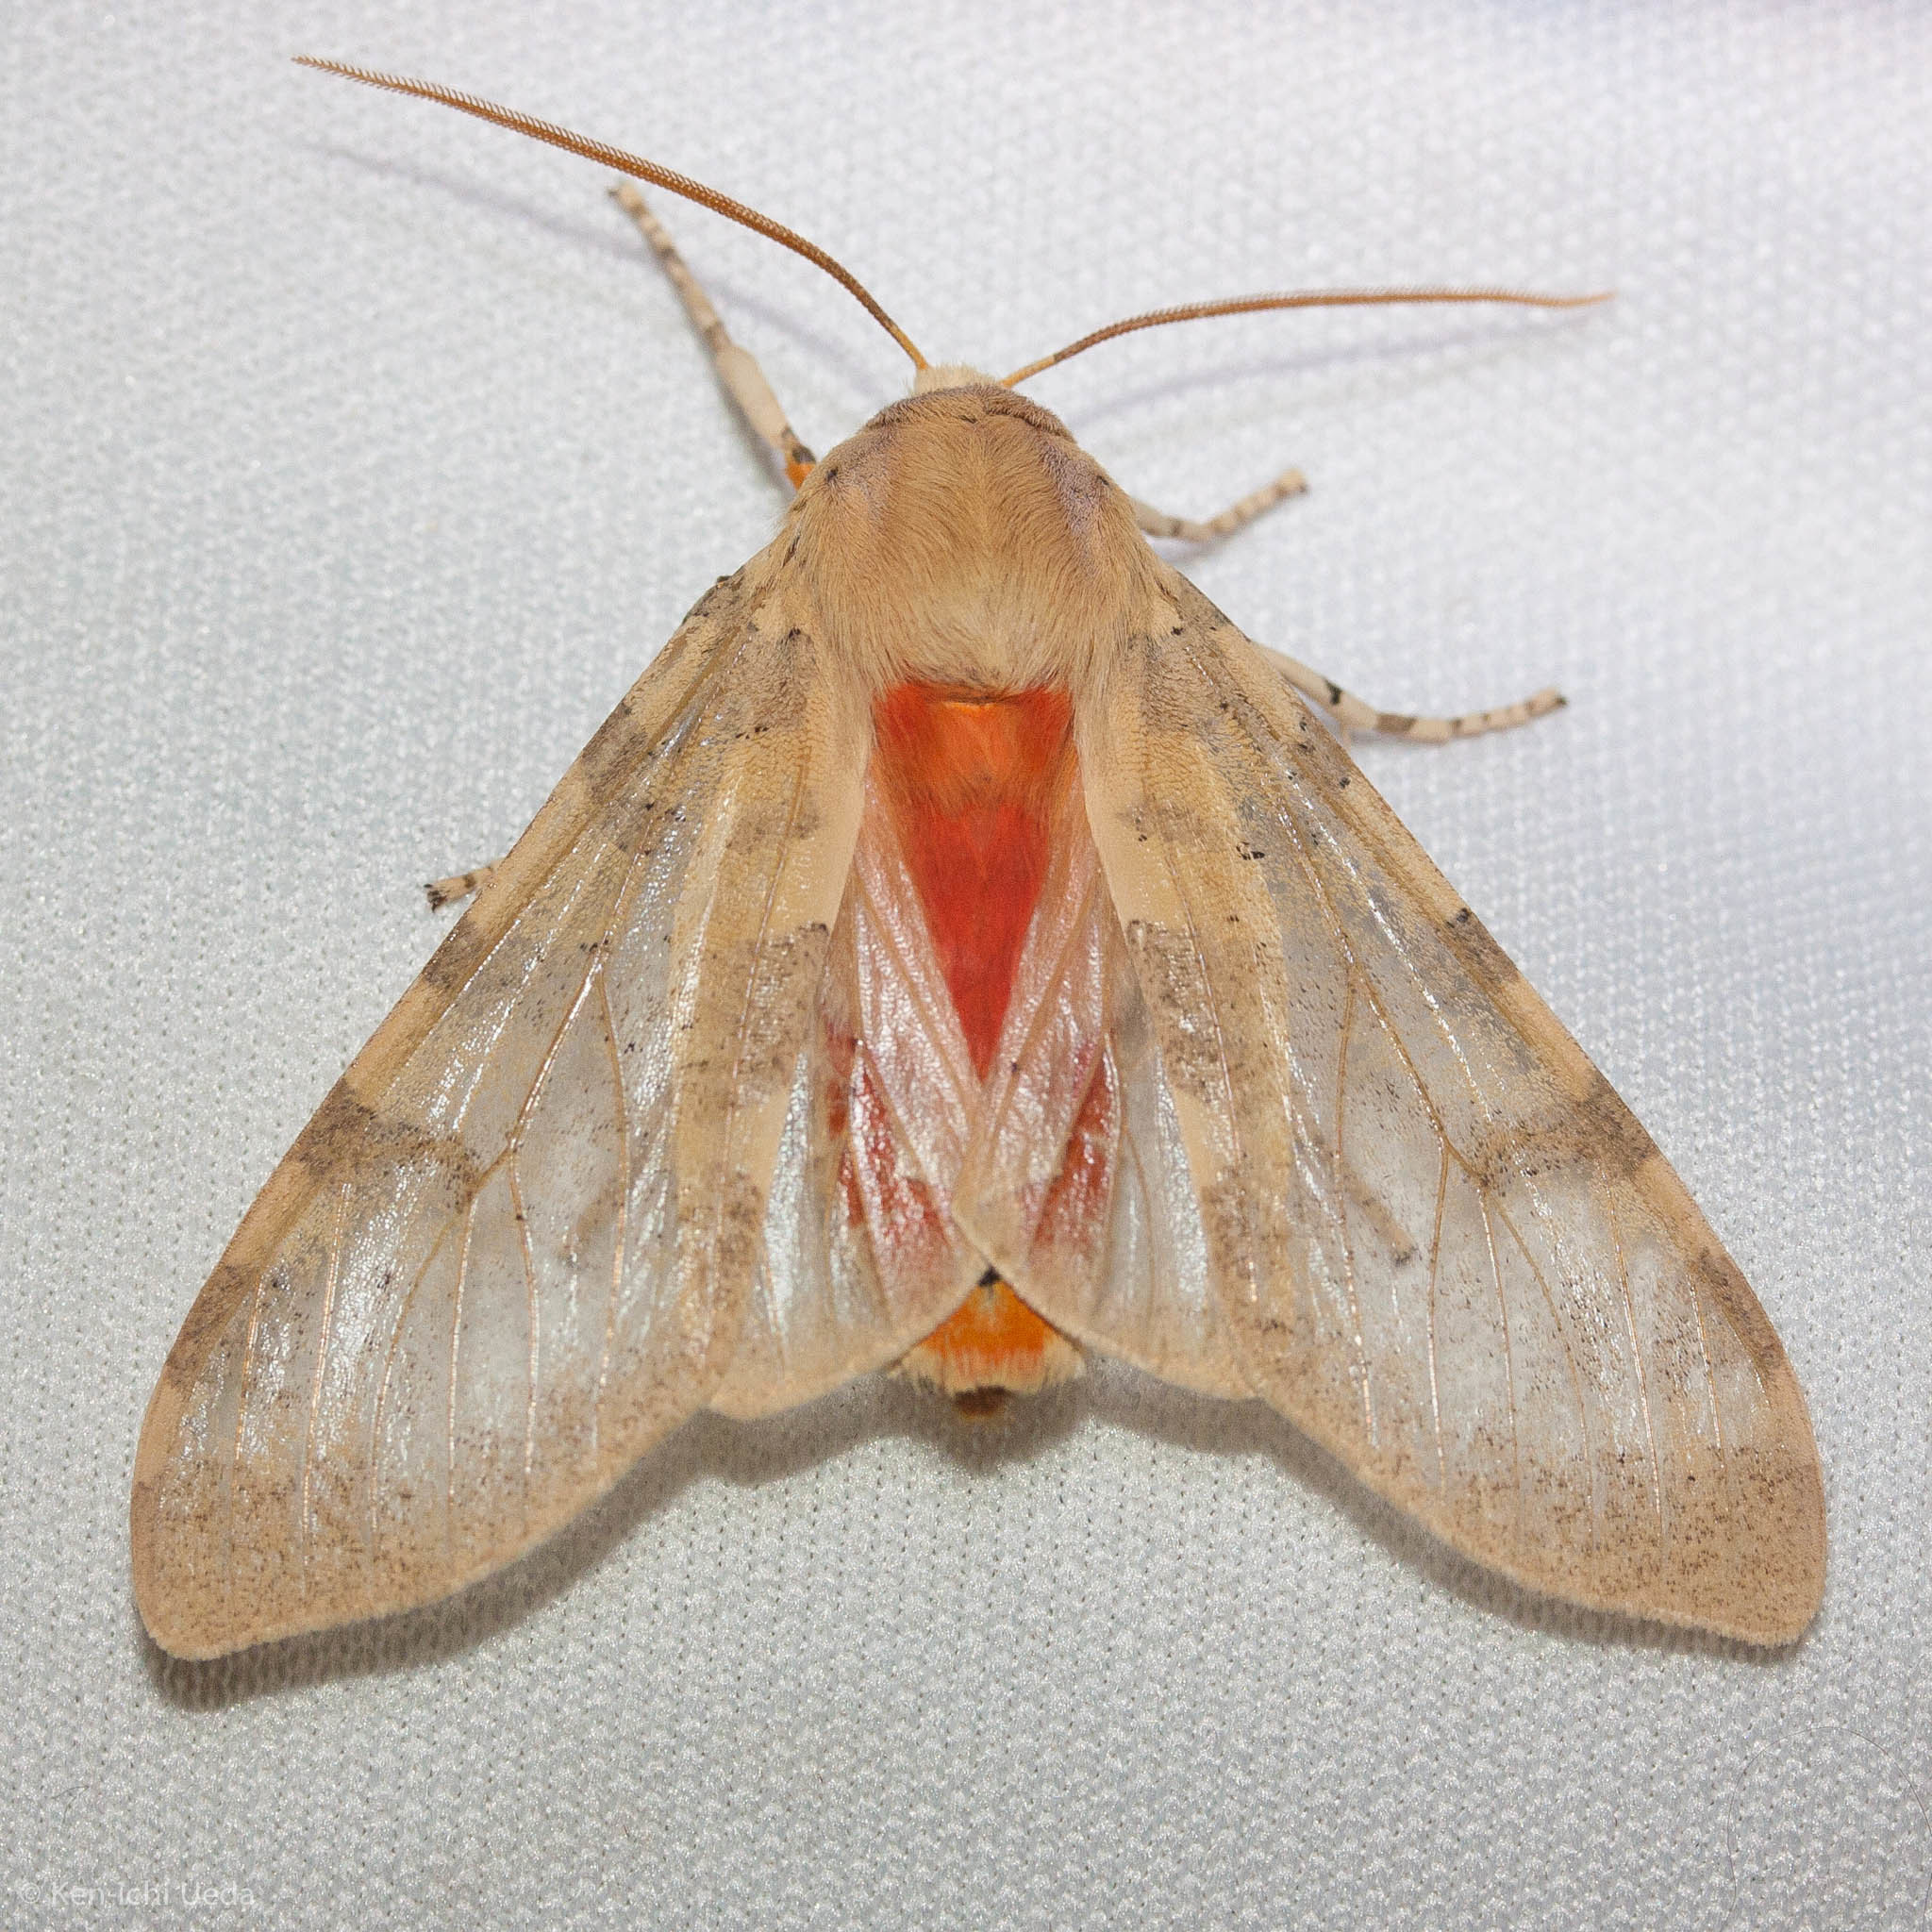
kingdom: Animalia
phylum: Arthropoda
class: Insecta
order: Lepidoptera
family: Erebidae
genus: Hemihyalea
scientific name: Hemihyalea edwardsii
